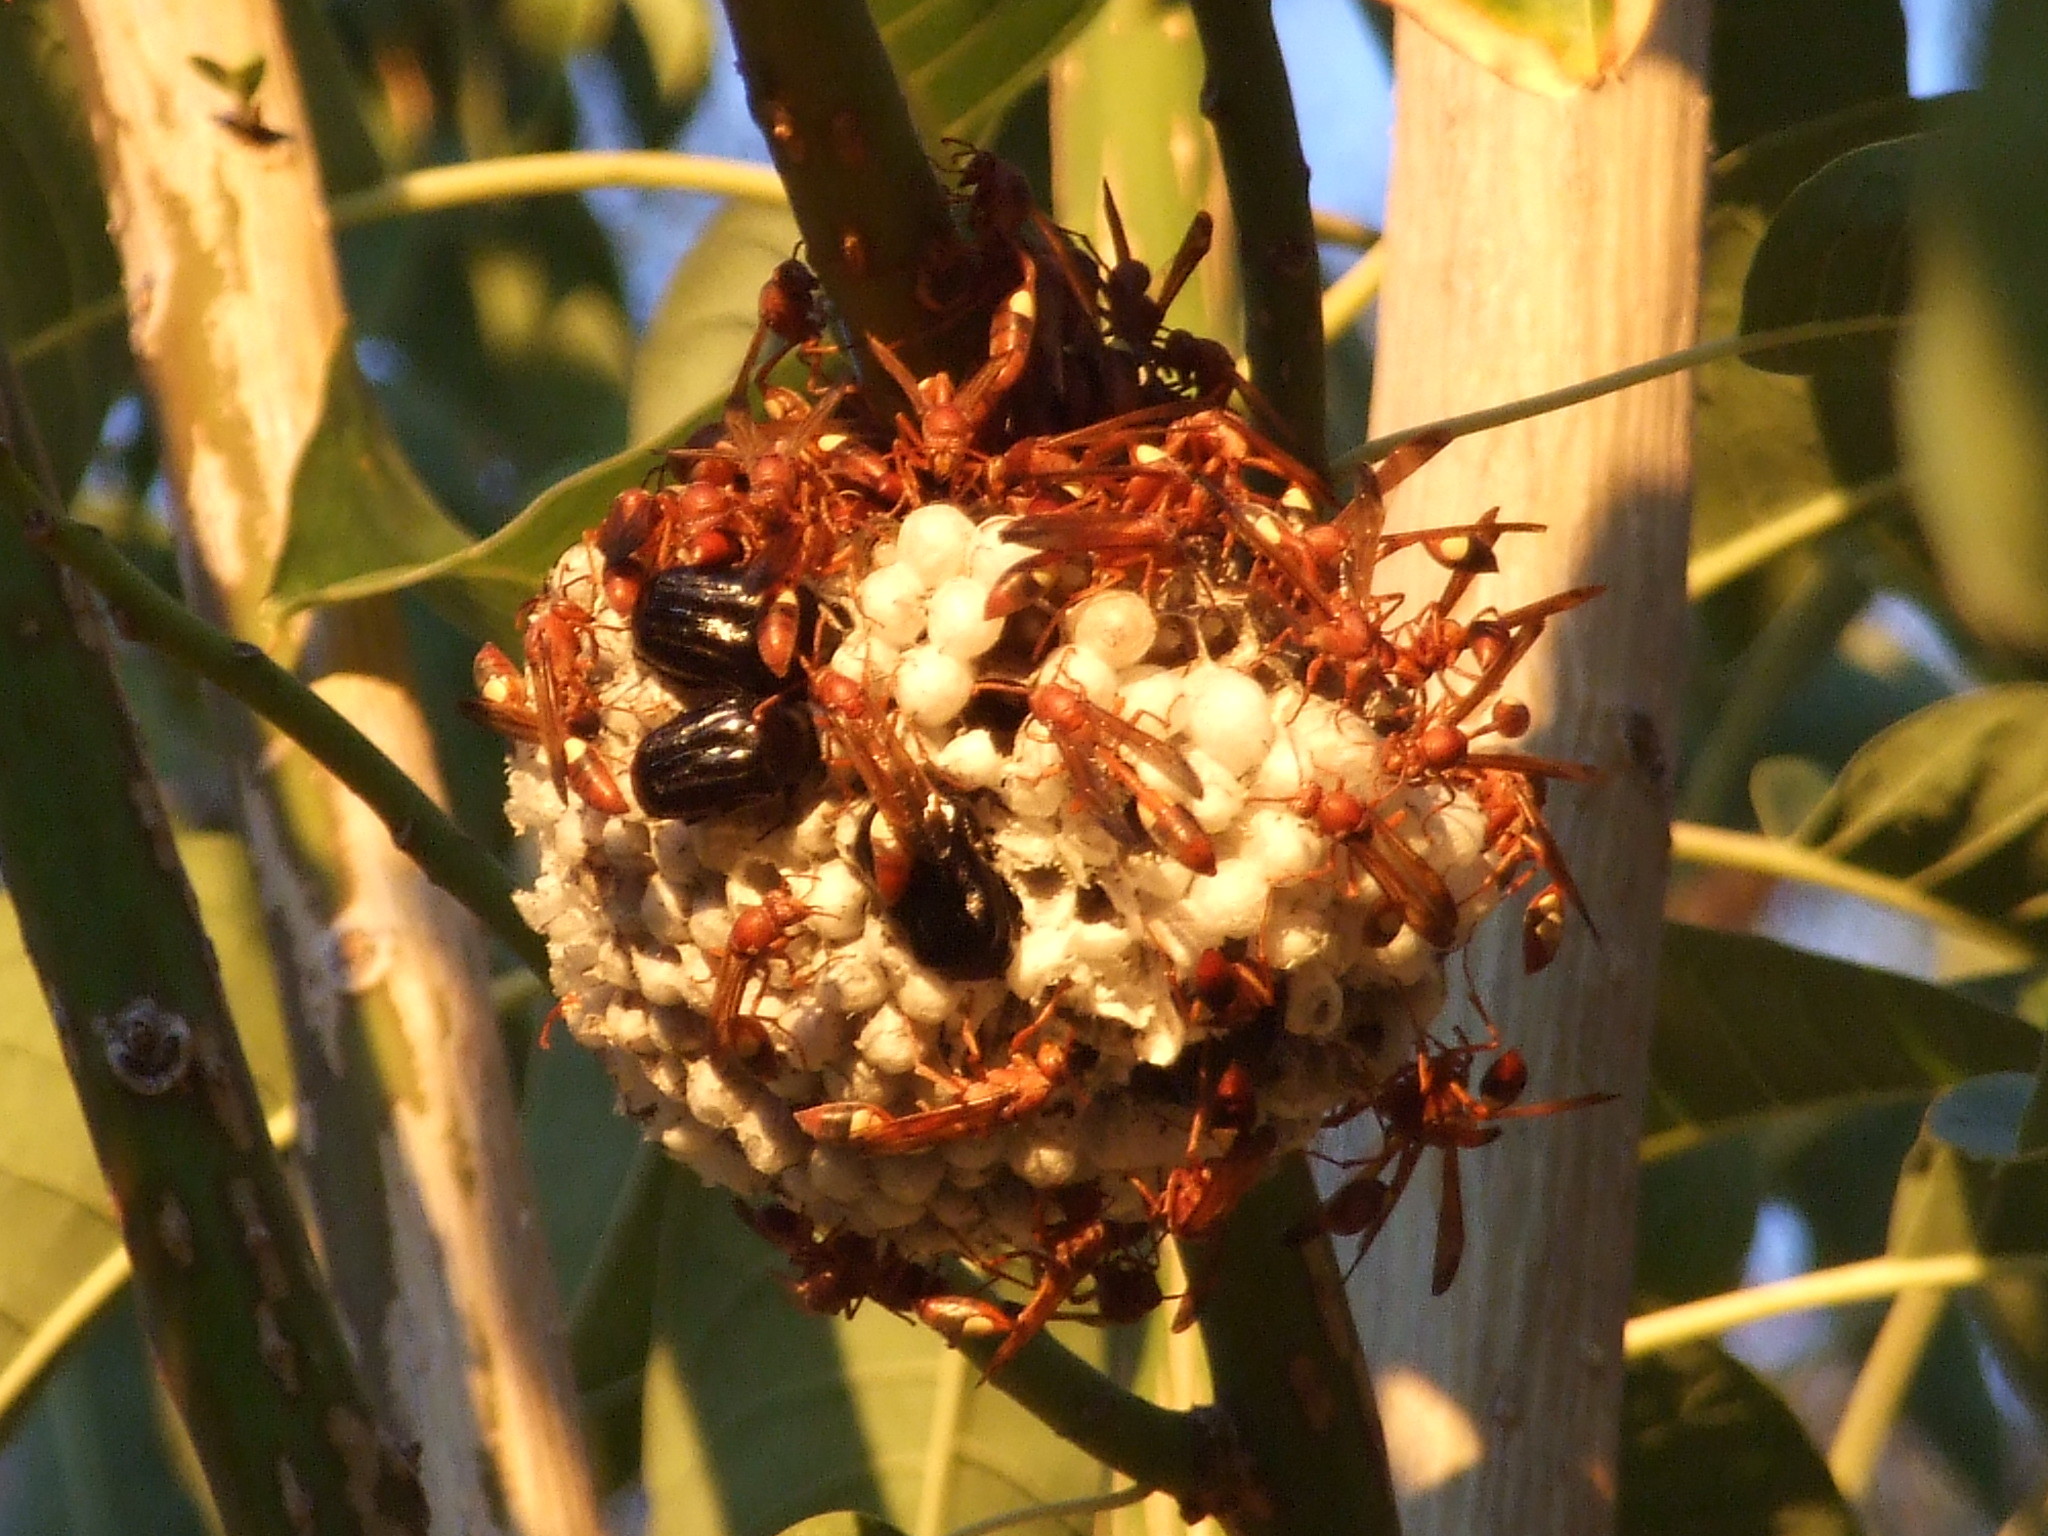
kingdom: Animalia
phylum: Arthropoda
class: Insecta
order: Hymenoptera
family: Eumenidae
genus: Belonogaster
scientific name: Belonogaster lateritius
